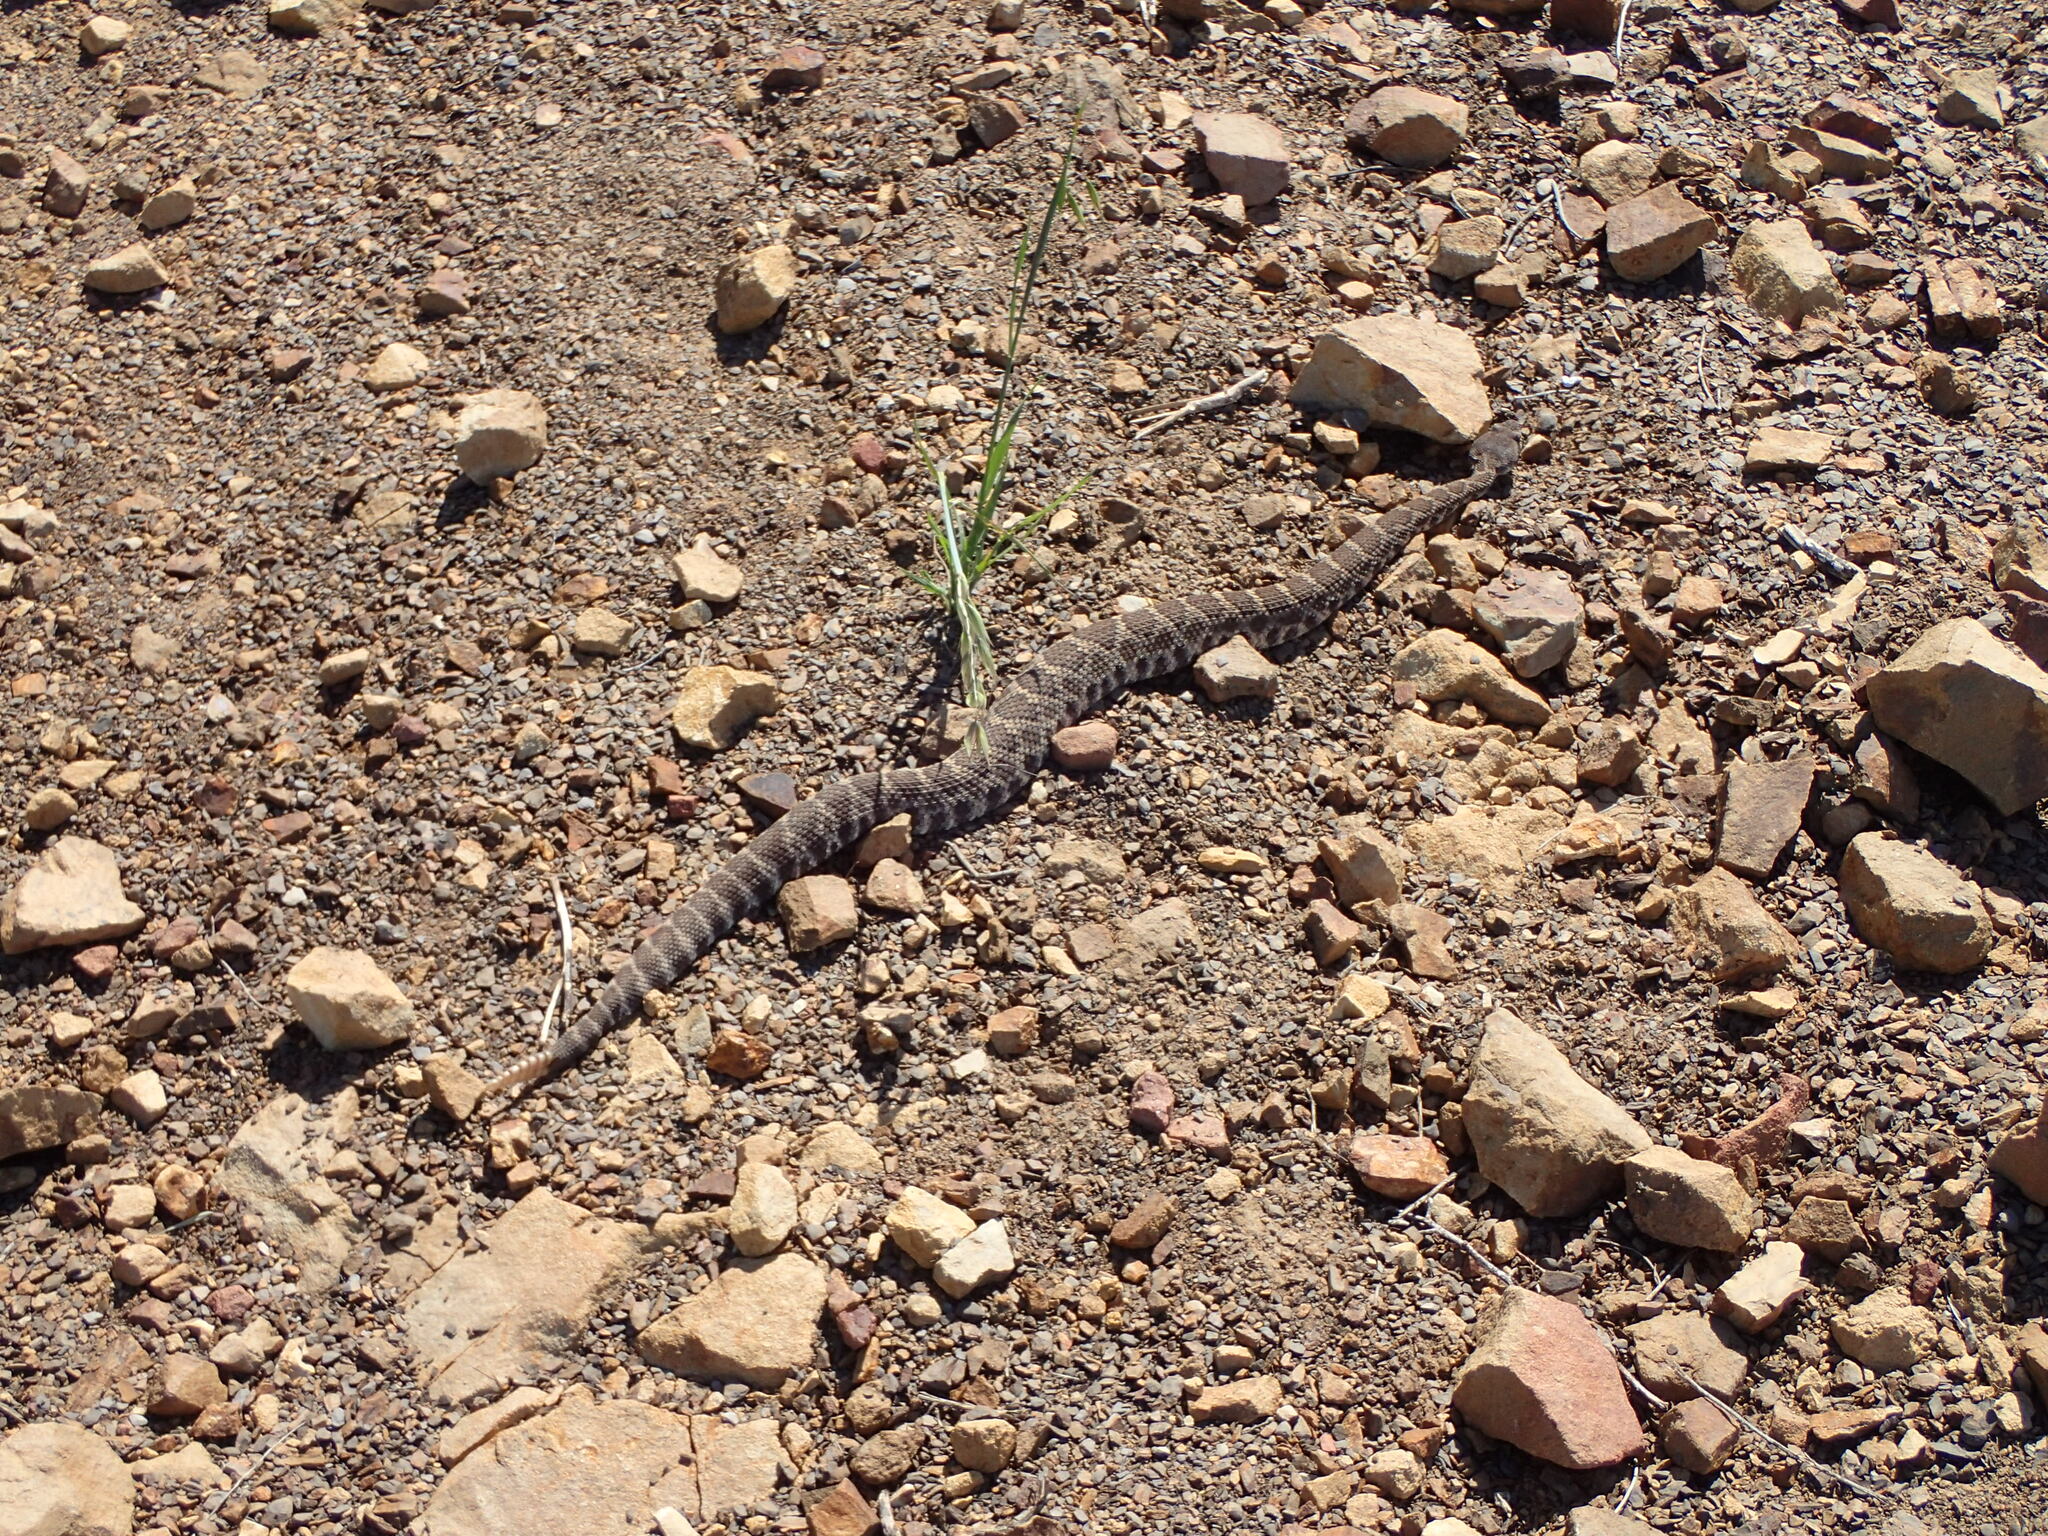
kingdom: Animalia
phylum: Chordata
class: Squamata
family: Viperidae
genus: Crotalus
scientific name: Crotalus oreganus
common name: Abyssus
